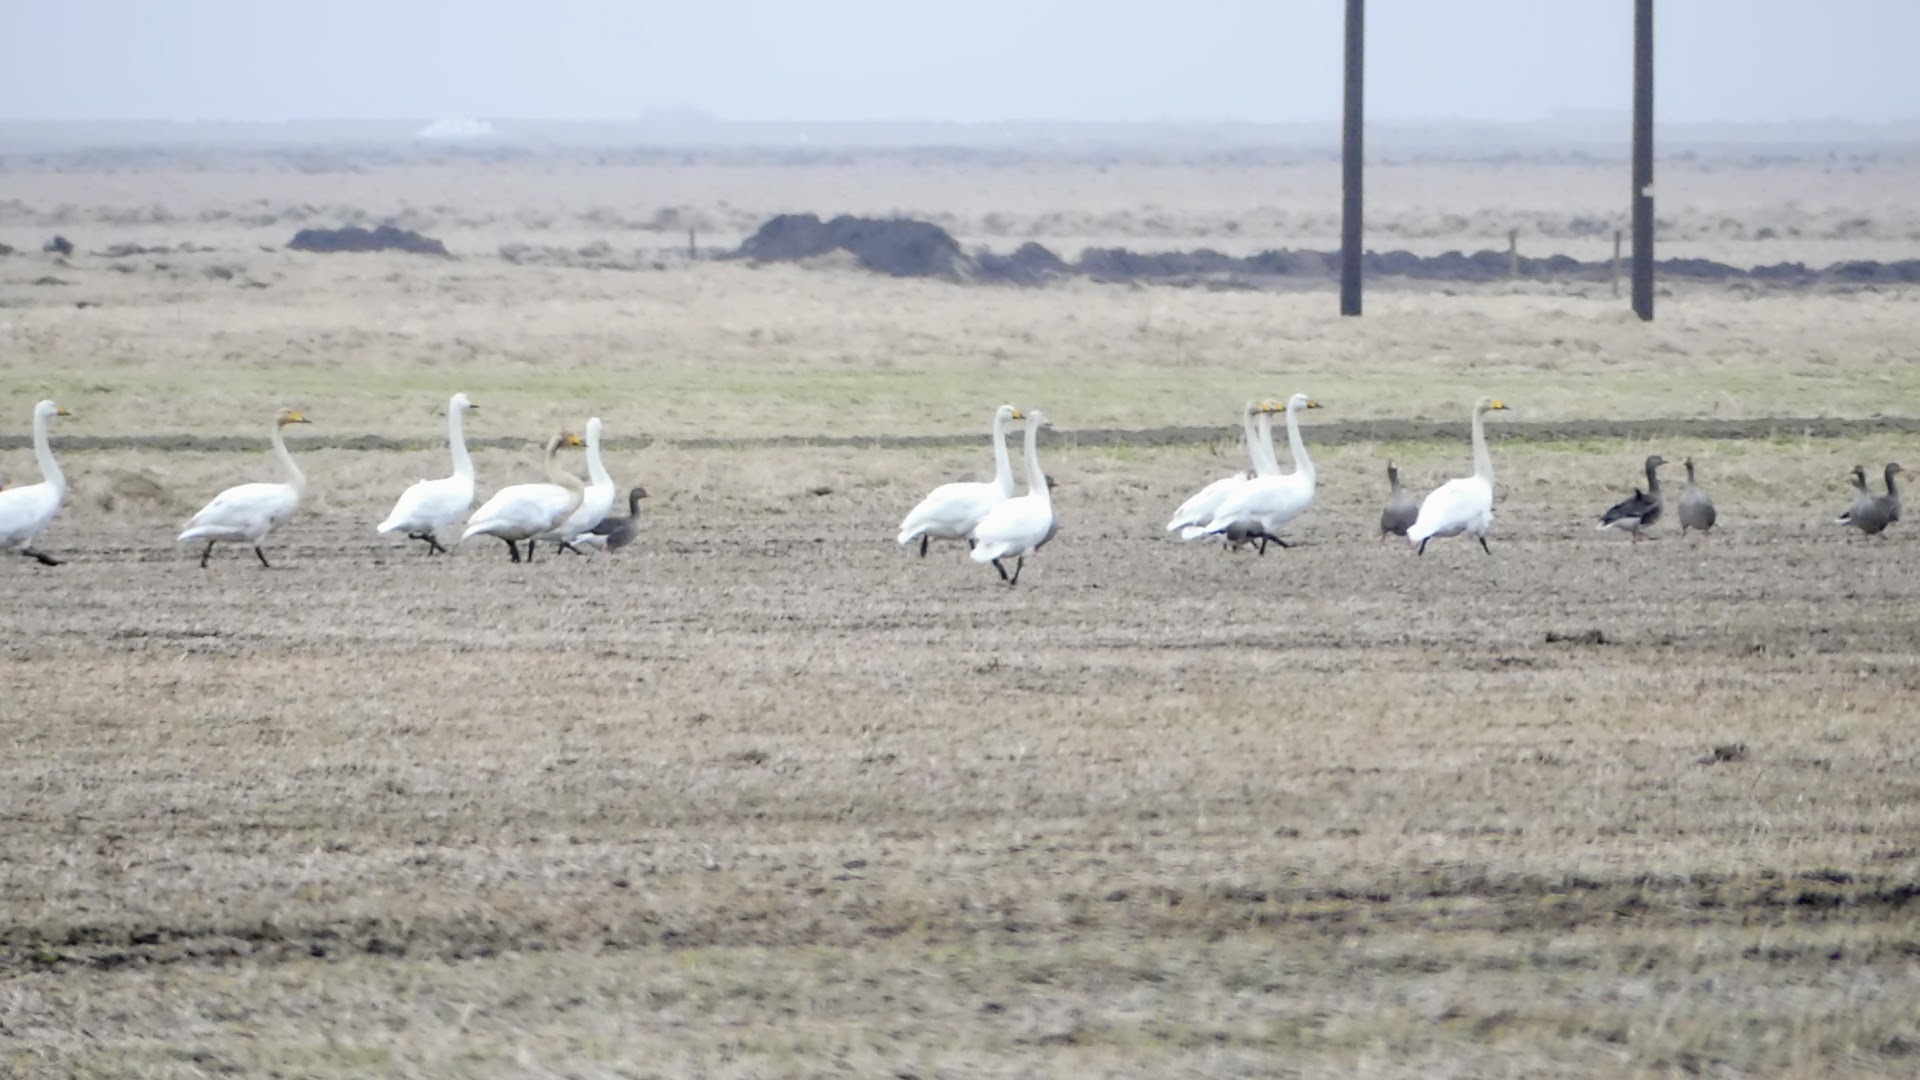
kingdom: Animalia
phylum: Chordata
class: Aves
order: Anseriformes
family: Anatidae
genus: Cygnus
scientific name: Cygnus cygnus
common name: Whooper swan
